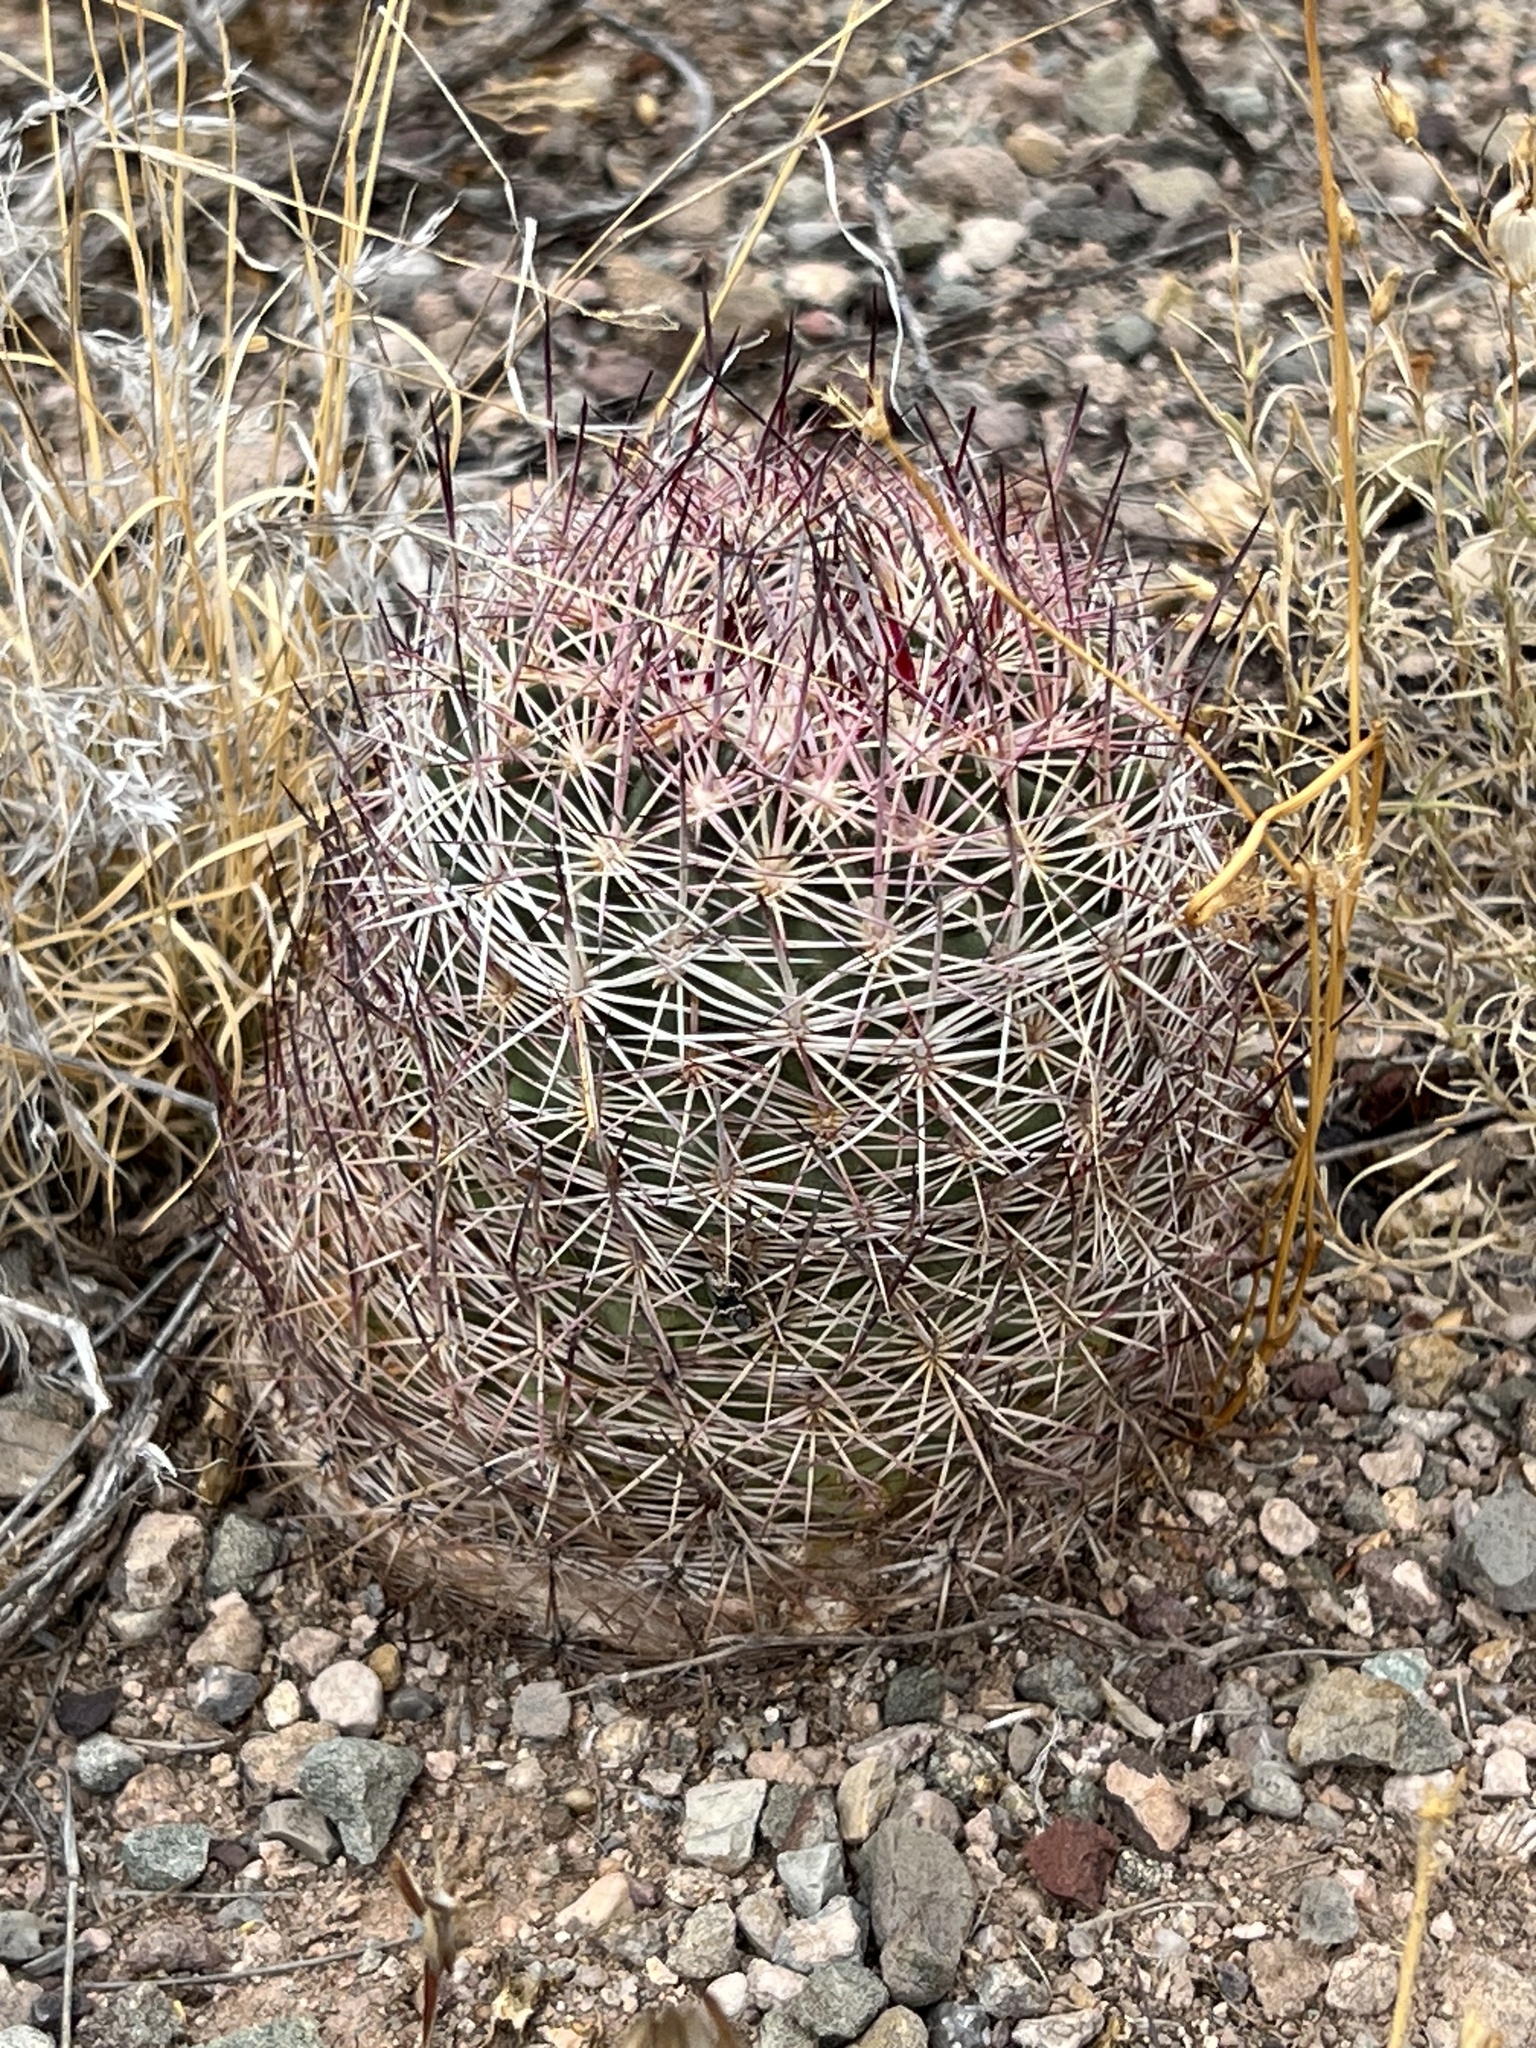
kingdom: Plantae
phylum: Tracheophyta
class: Magnoliopsida
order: Caryophyllales
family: Cactaceae
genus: Sclerocactus
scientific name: Sclerocactus johnsonii
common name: Eight-spine fishhook cactus
